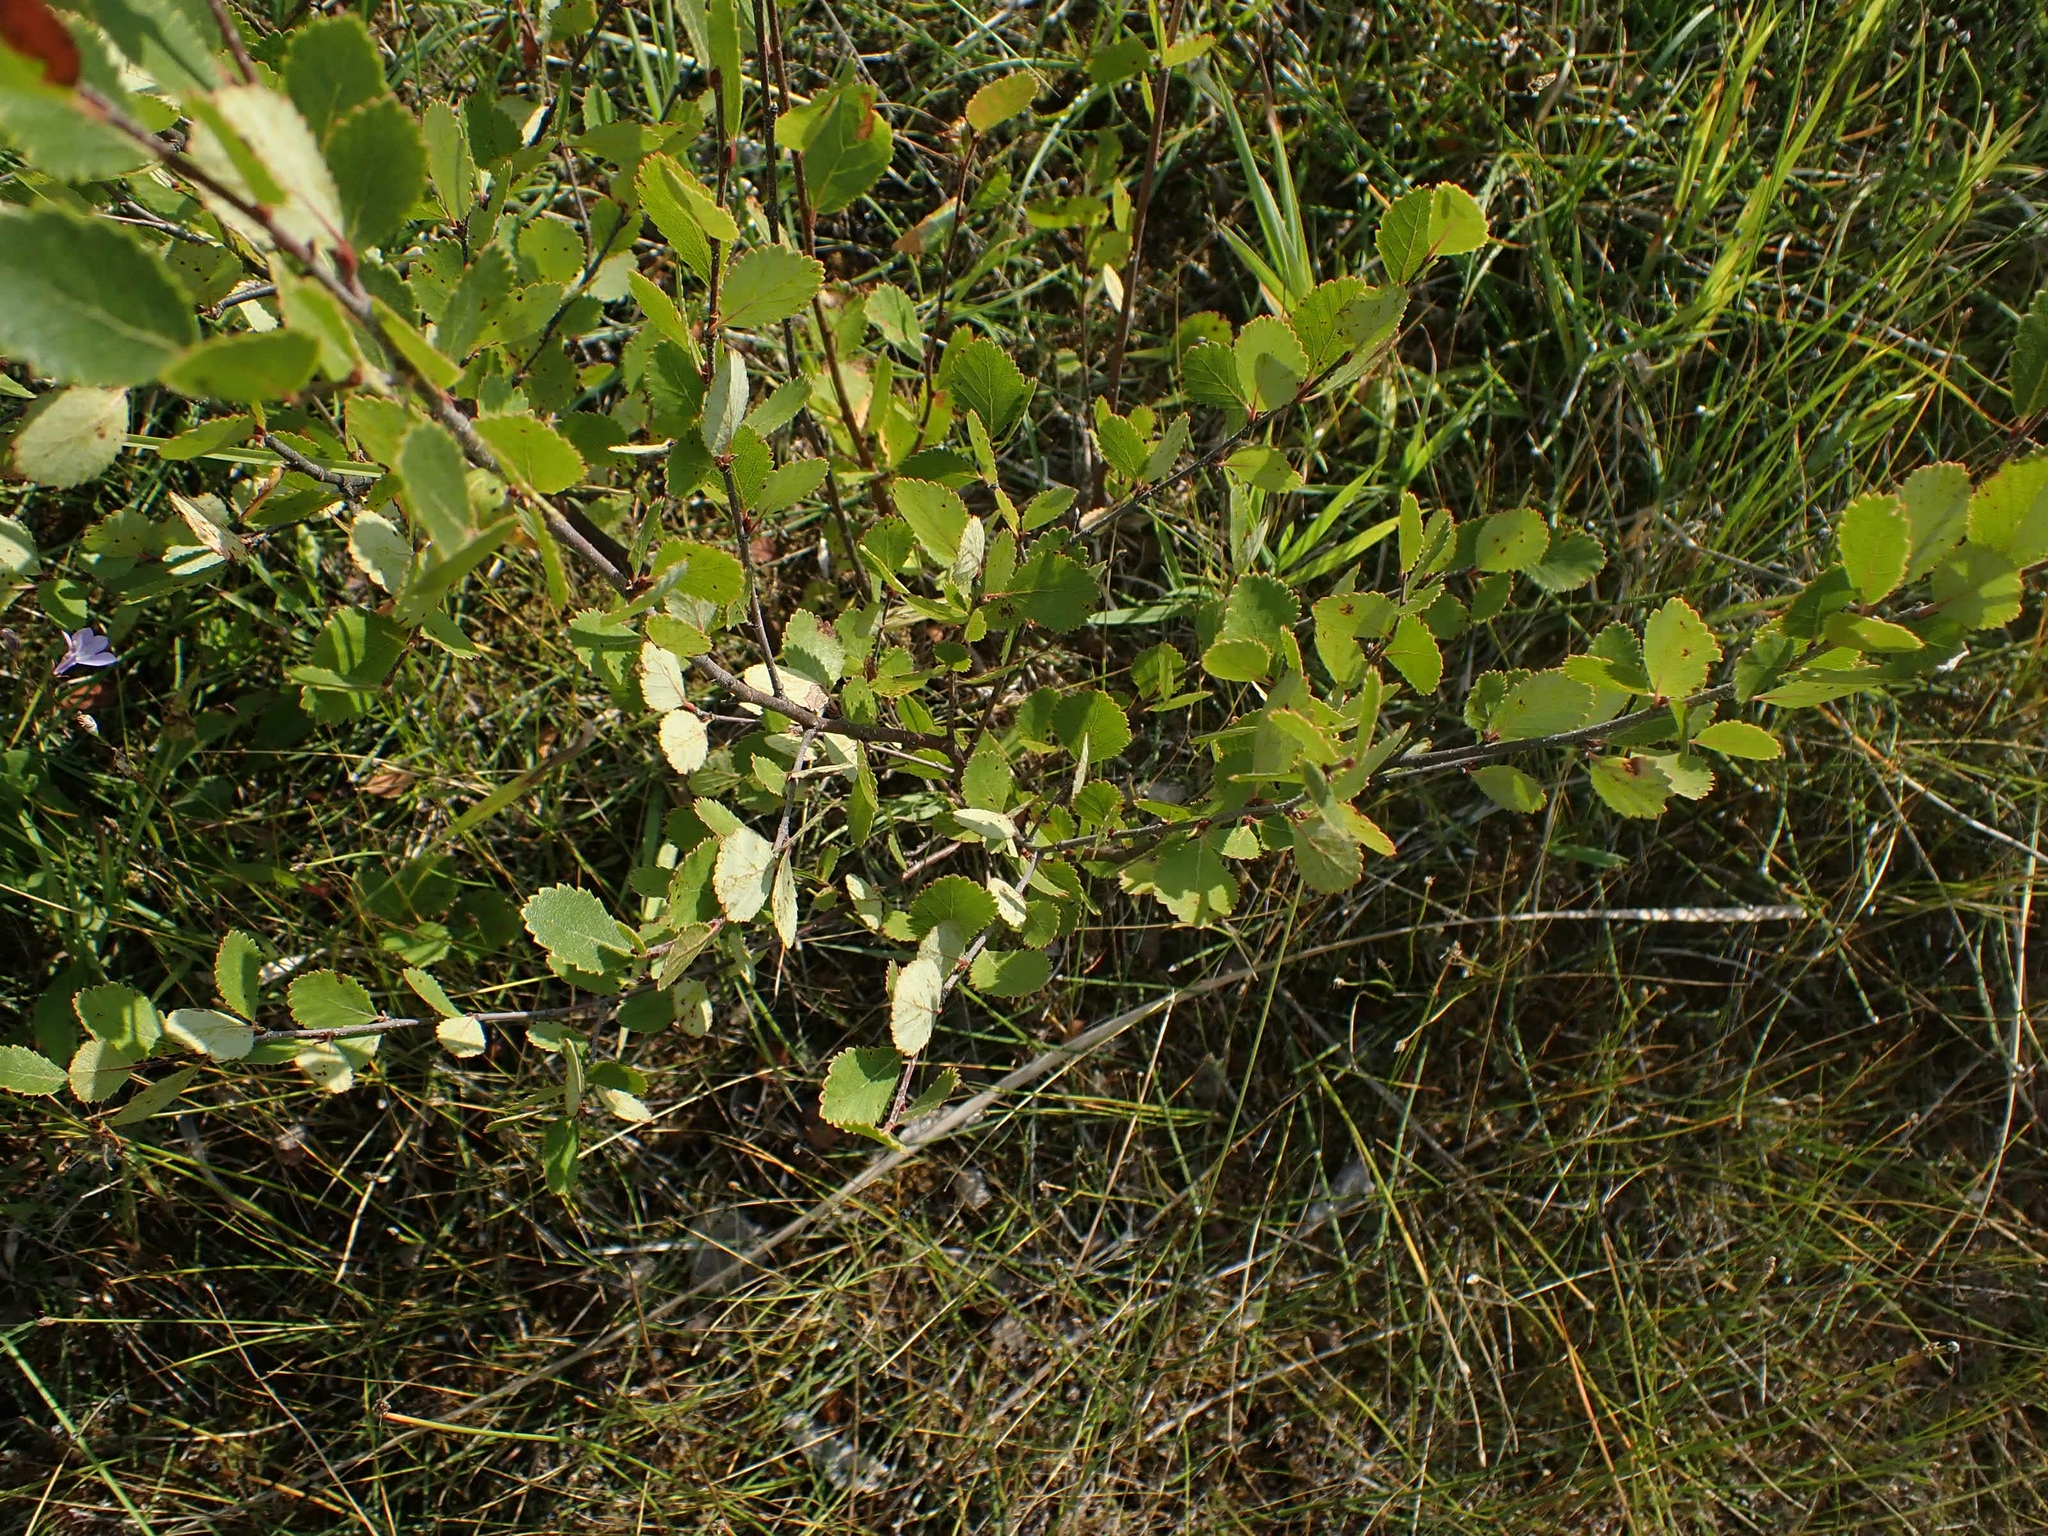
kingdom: Plantae
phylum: Tracheophyta
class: Magnoliopsida
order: Fagales
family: Betulaceae
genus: Betula
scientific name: Betula pumila
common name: Bog birch
